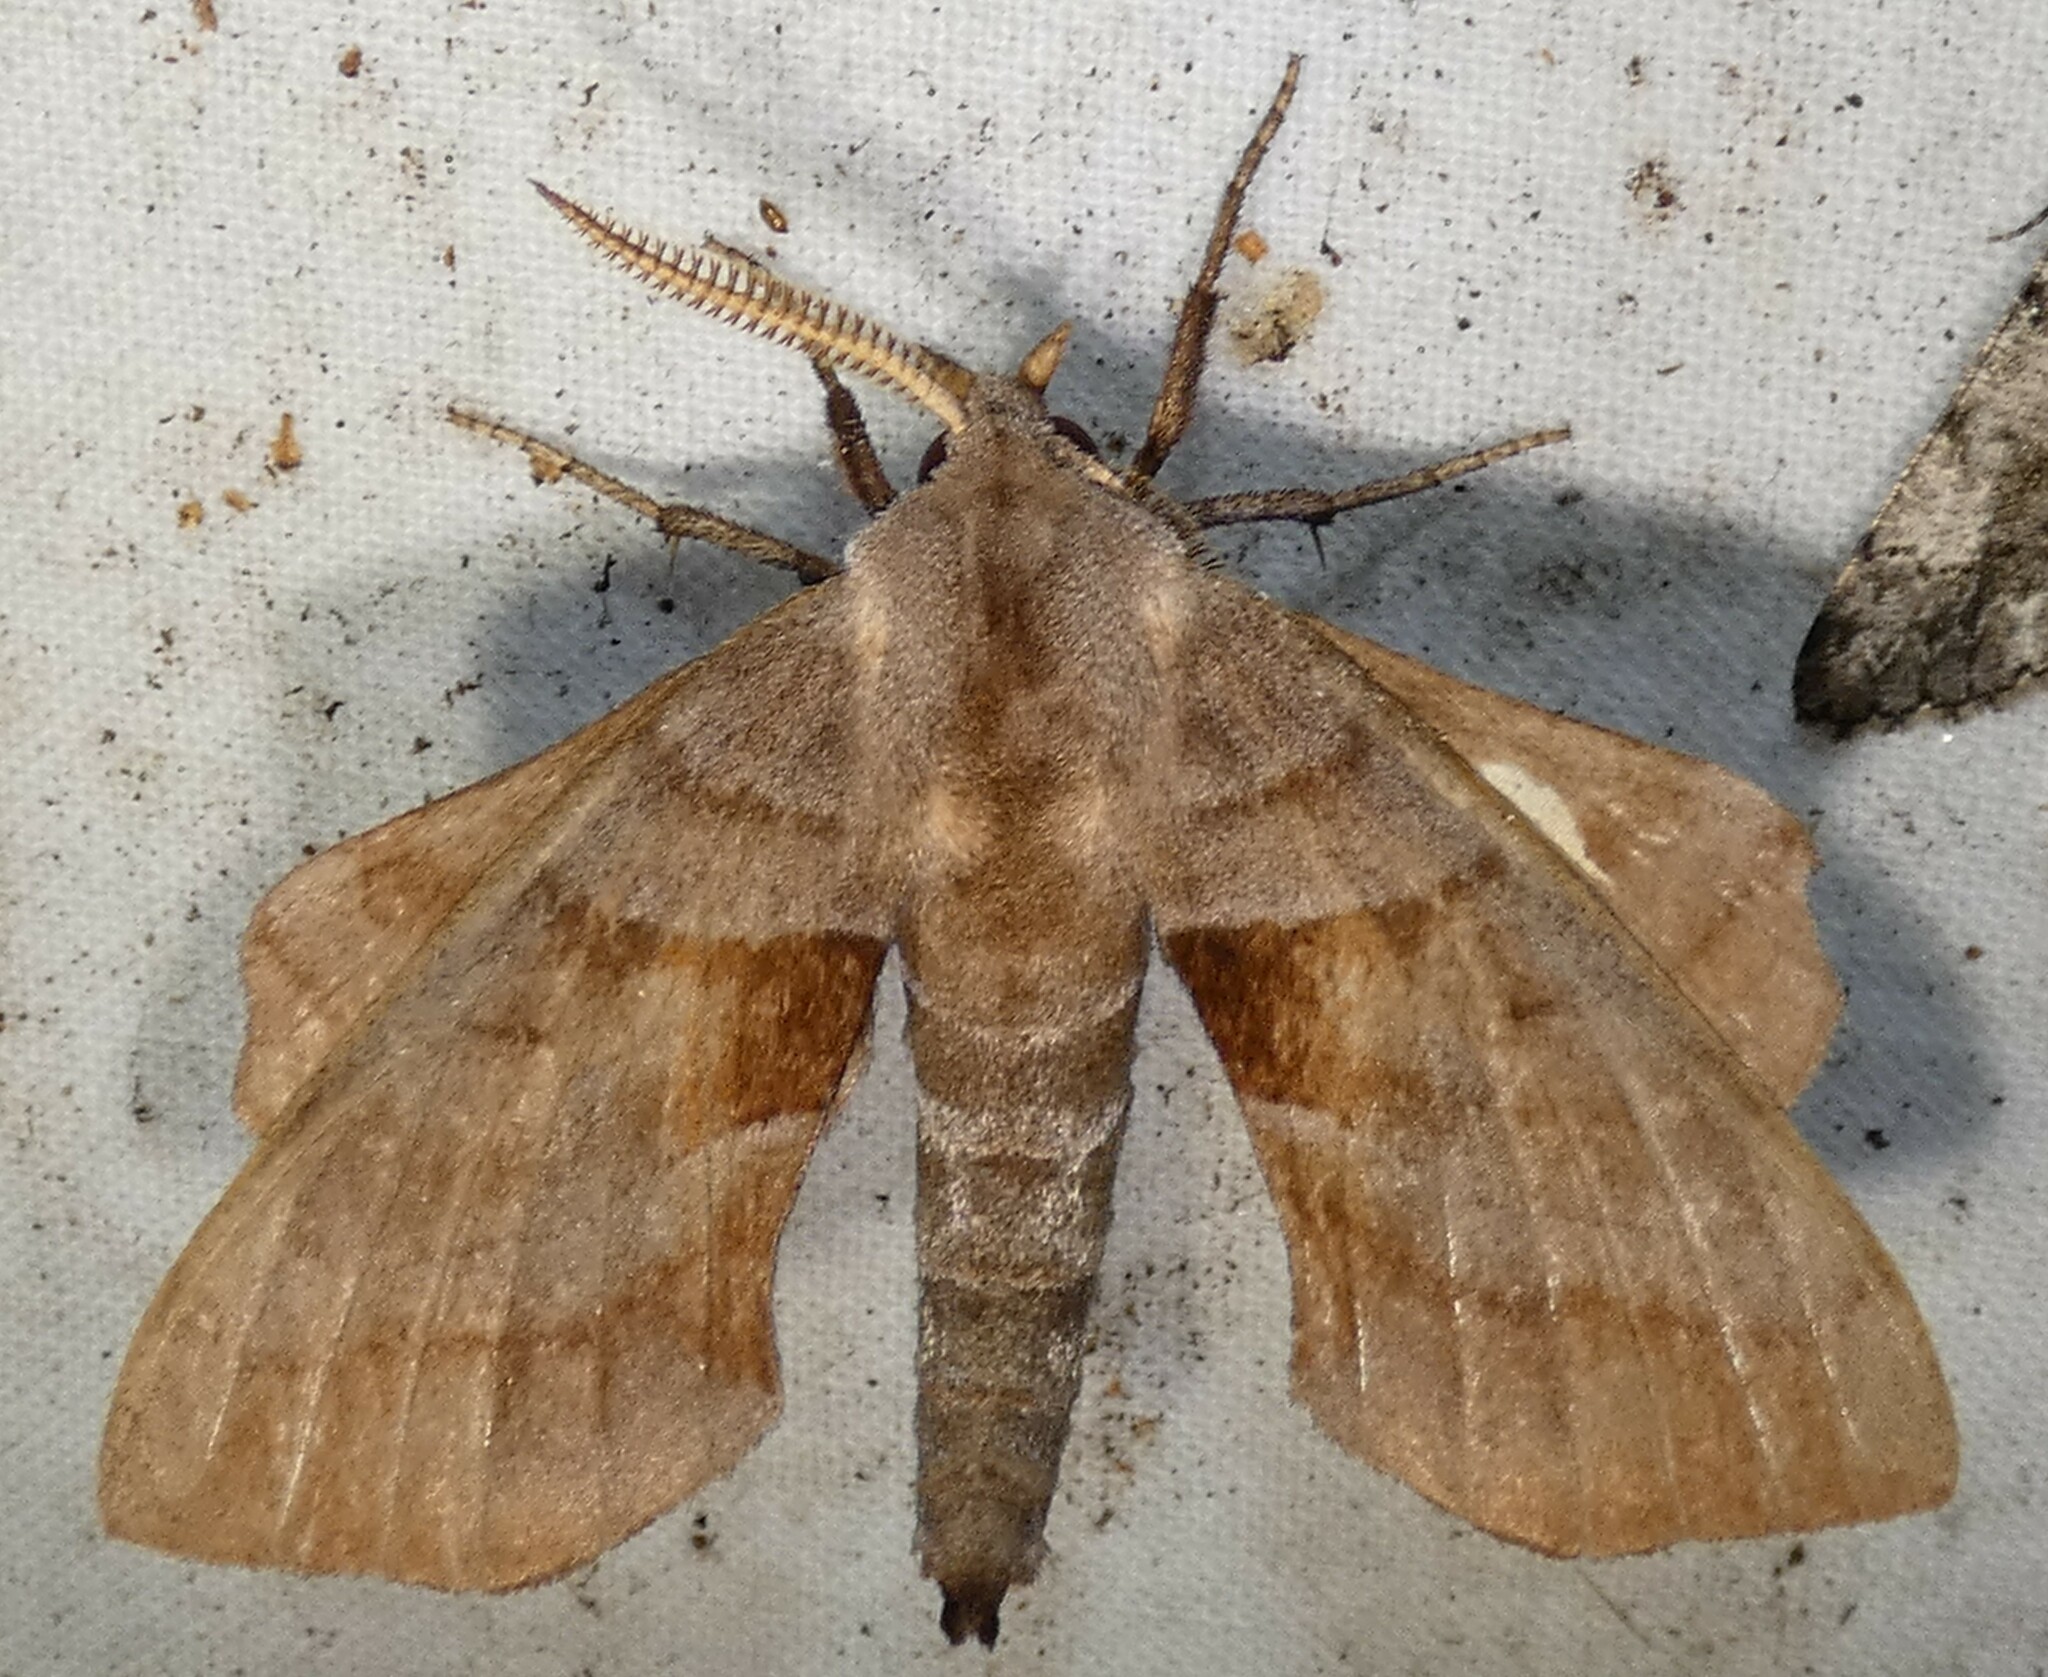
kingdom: Animalia
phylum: Arthropoda
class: Insecta
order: Lepidoptera
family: Sphingidae
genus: Amorpha
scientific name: Amorpha juglandis
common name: Walnut sphinx
